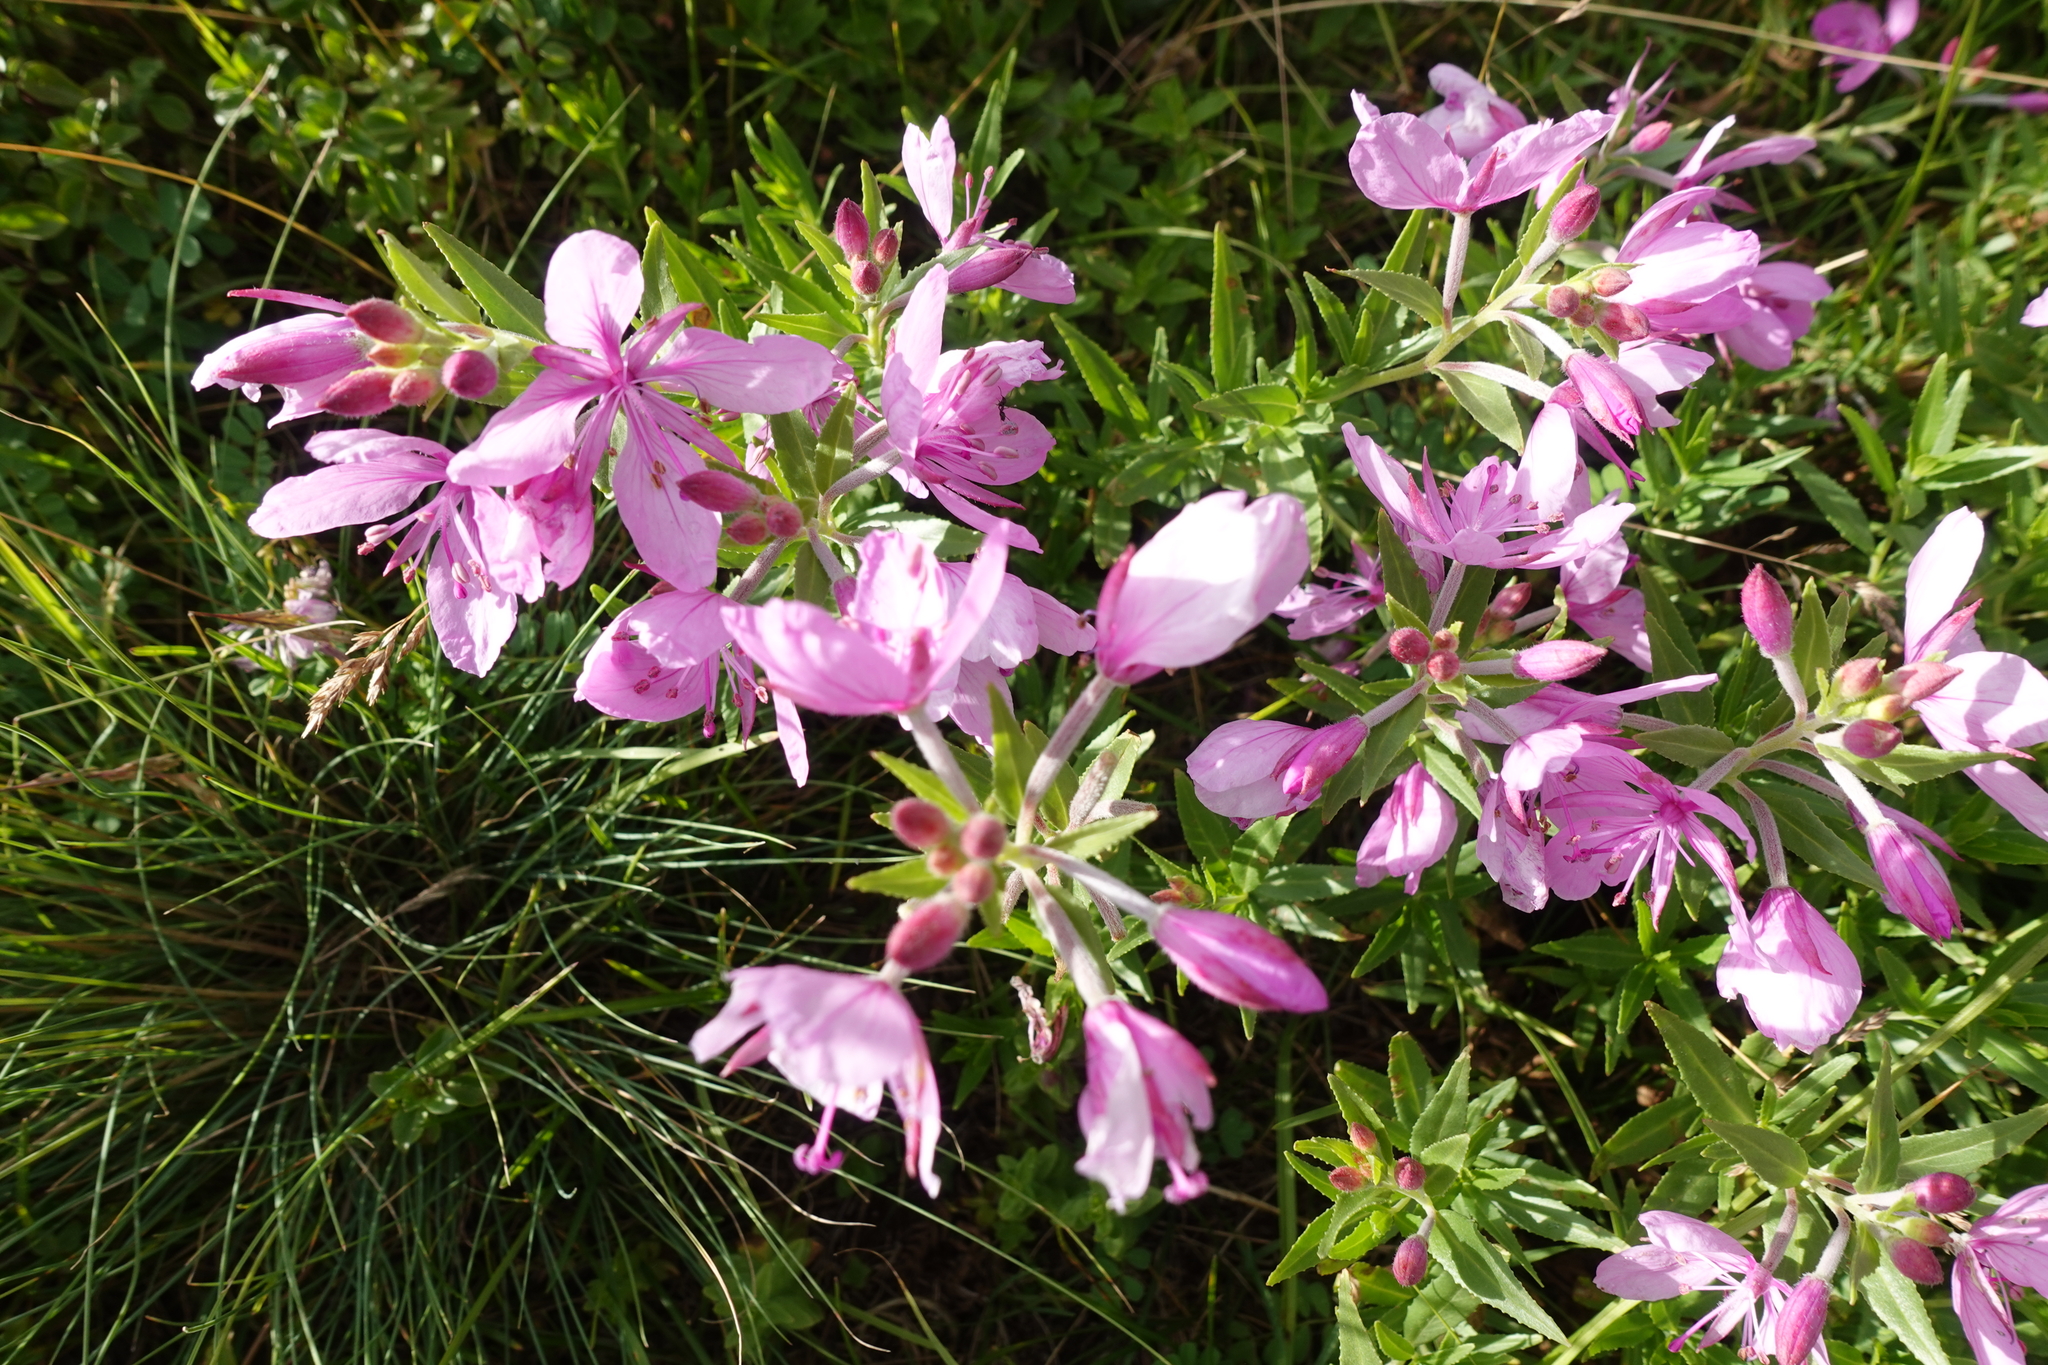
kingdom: Plantae
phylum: Tracheophyta
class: Magnoliopsida
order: Myrtales
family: Onagraceae
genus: Chamaenerion
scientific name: Chamaenerion colchicum
